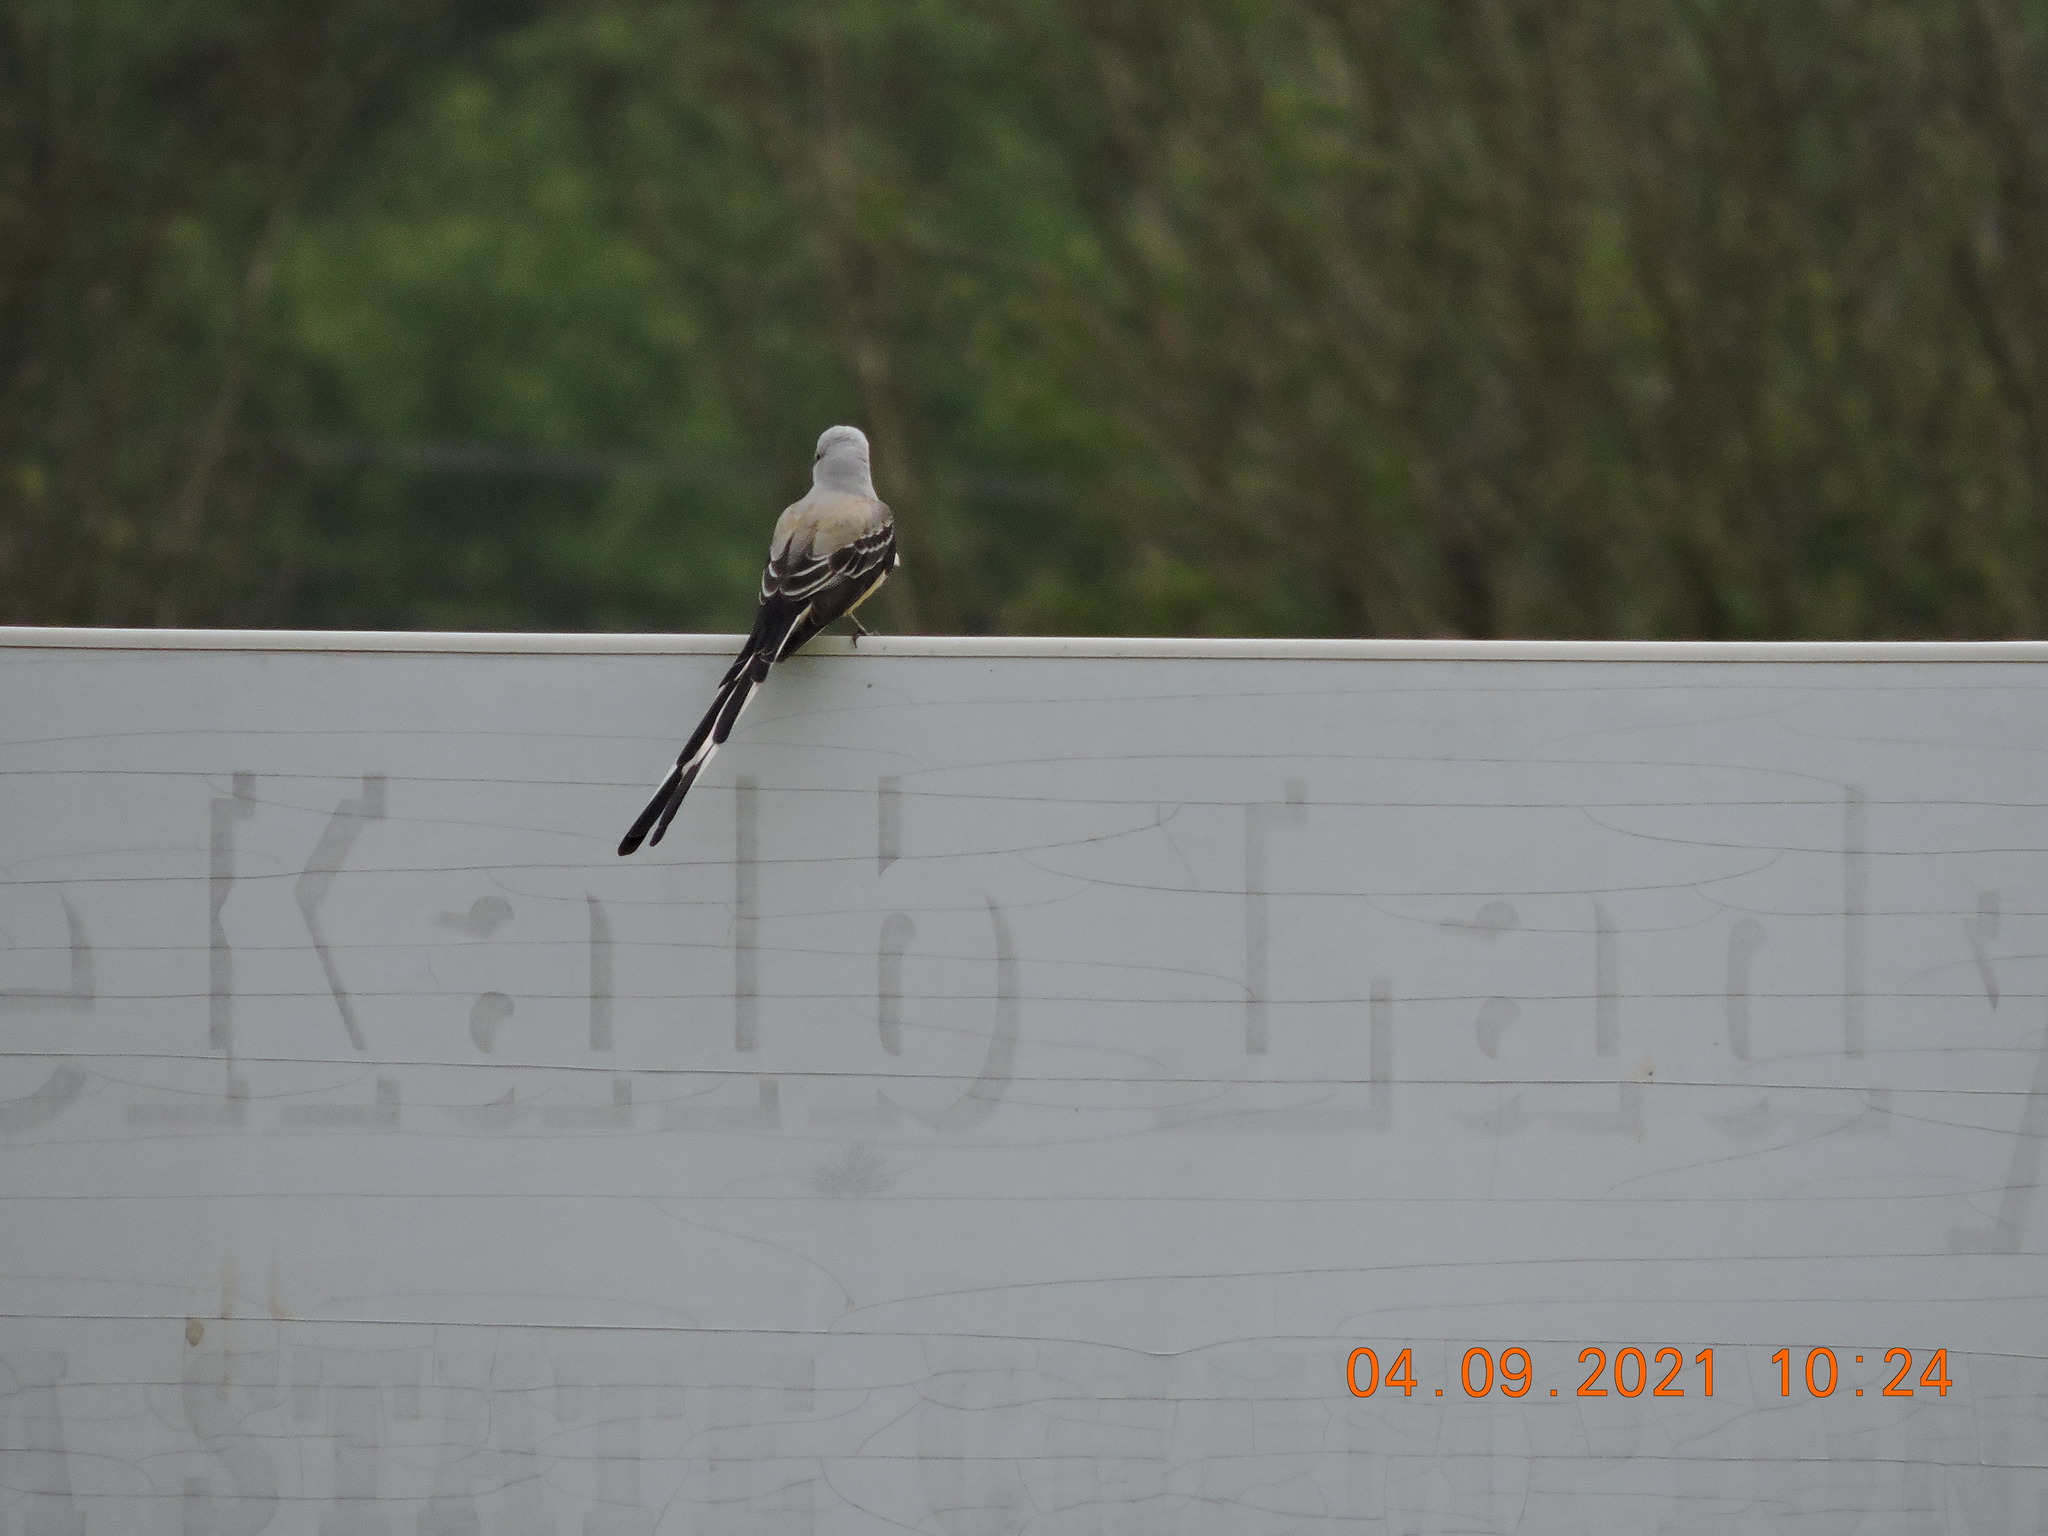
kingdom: Animalia
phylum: Chordata
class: Aves
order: Passeriformes
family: Tyrannidae
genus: Tyrannus
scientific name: Tyrannus forficatus
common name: Scissor-tailed flycatcher
